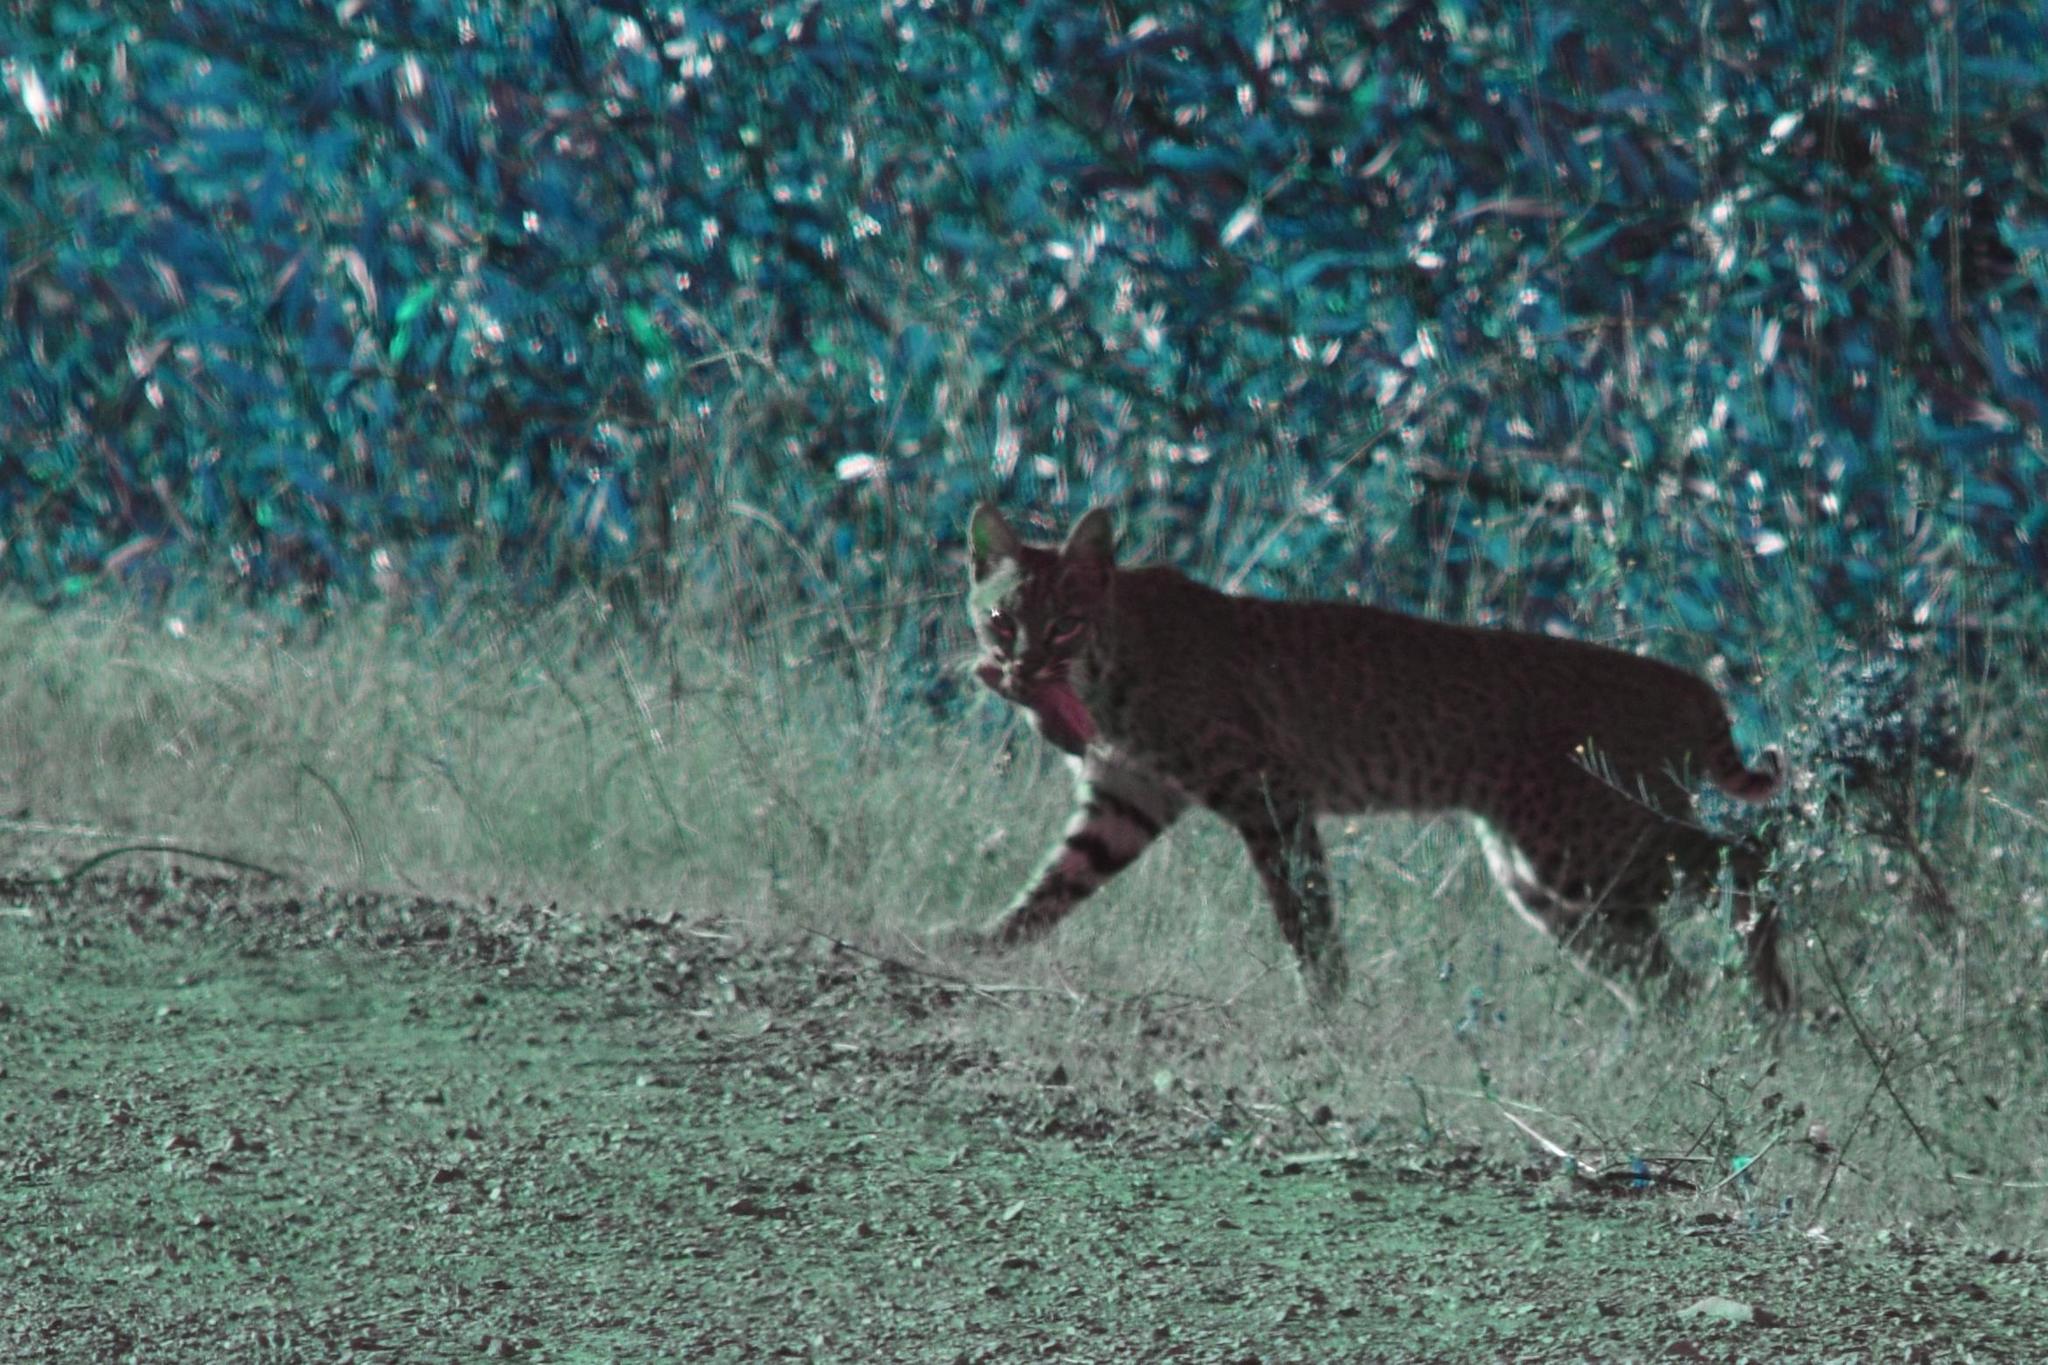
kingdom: Animalia
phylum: Chordata
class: Mammalia
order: Carnivora
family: Felidae
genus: Lynx
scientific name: Lynx rufus
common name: Bobcat
